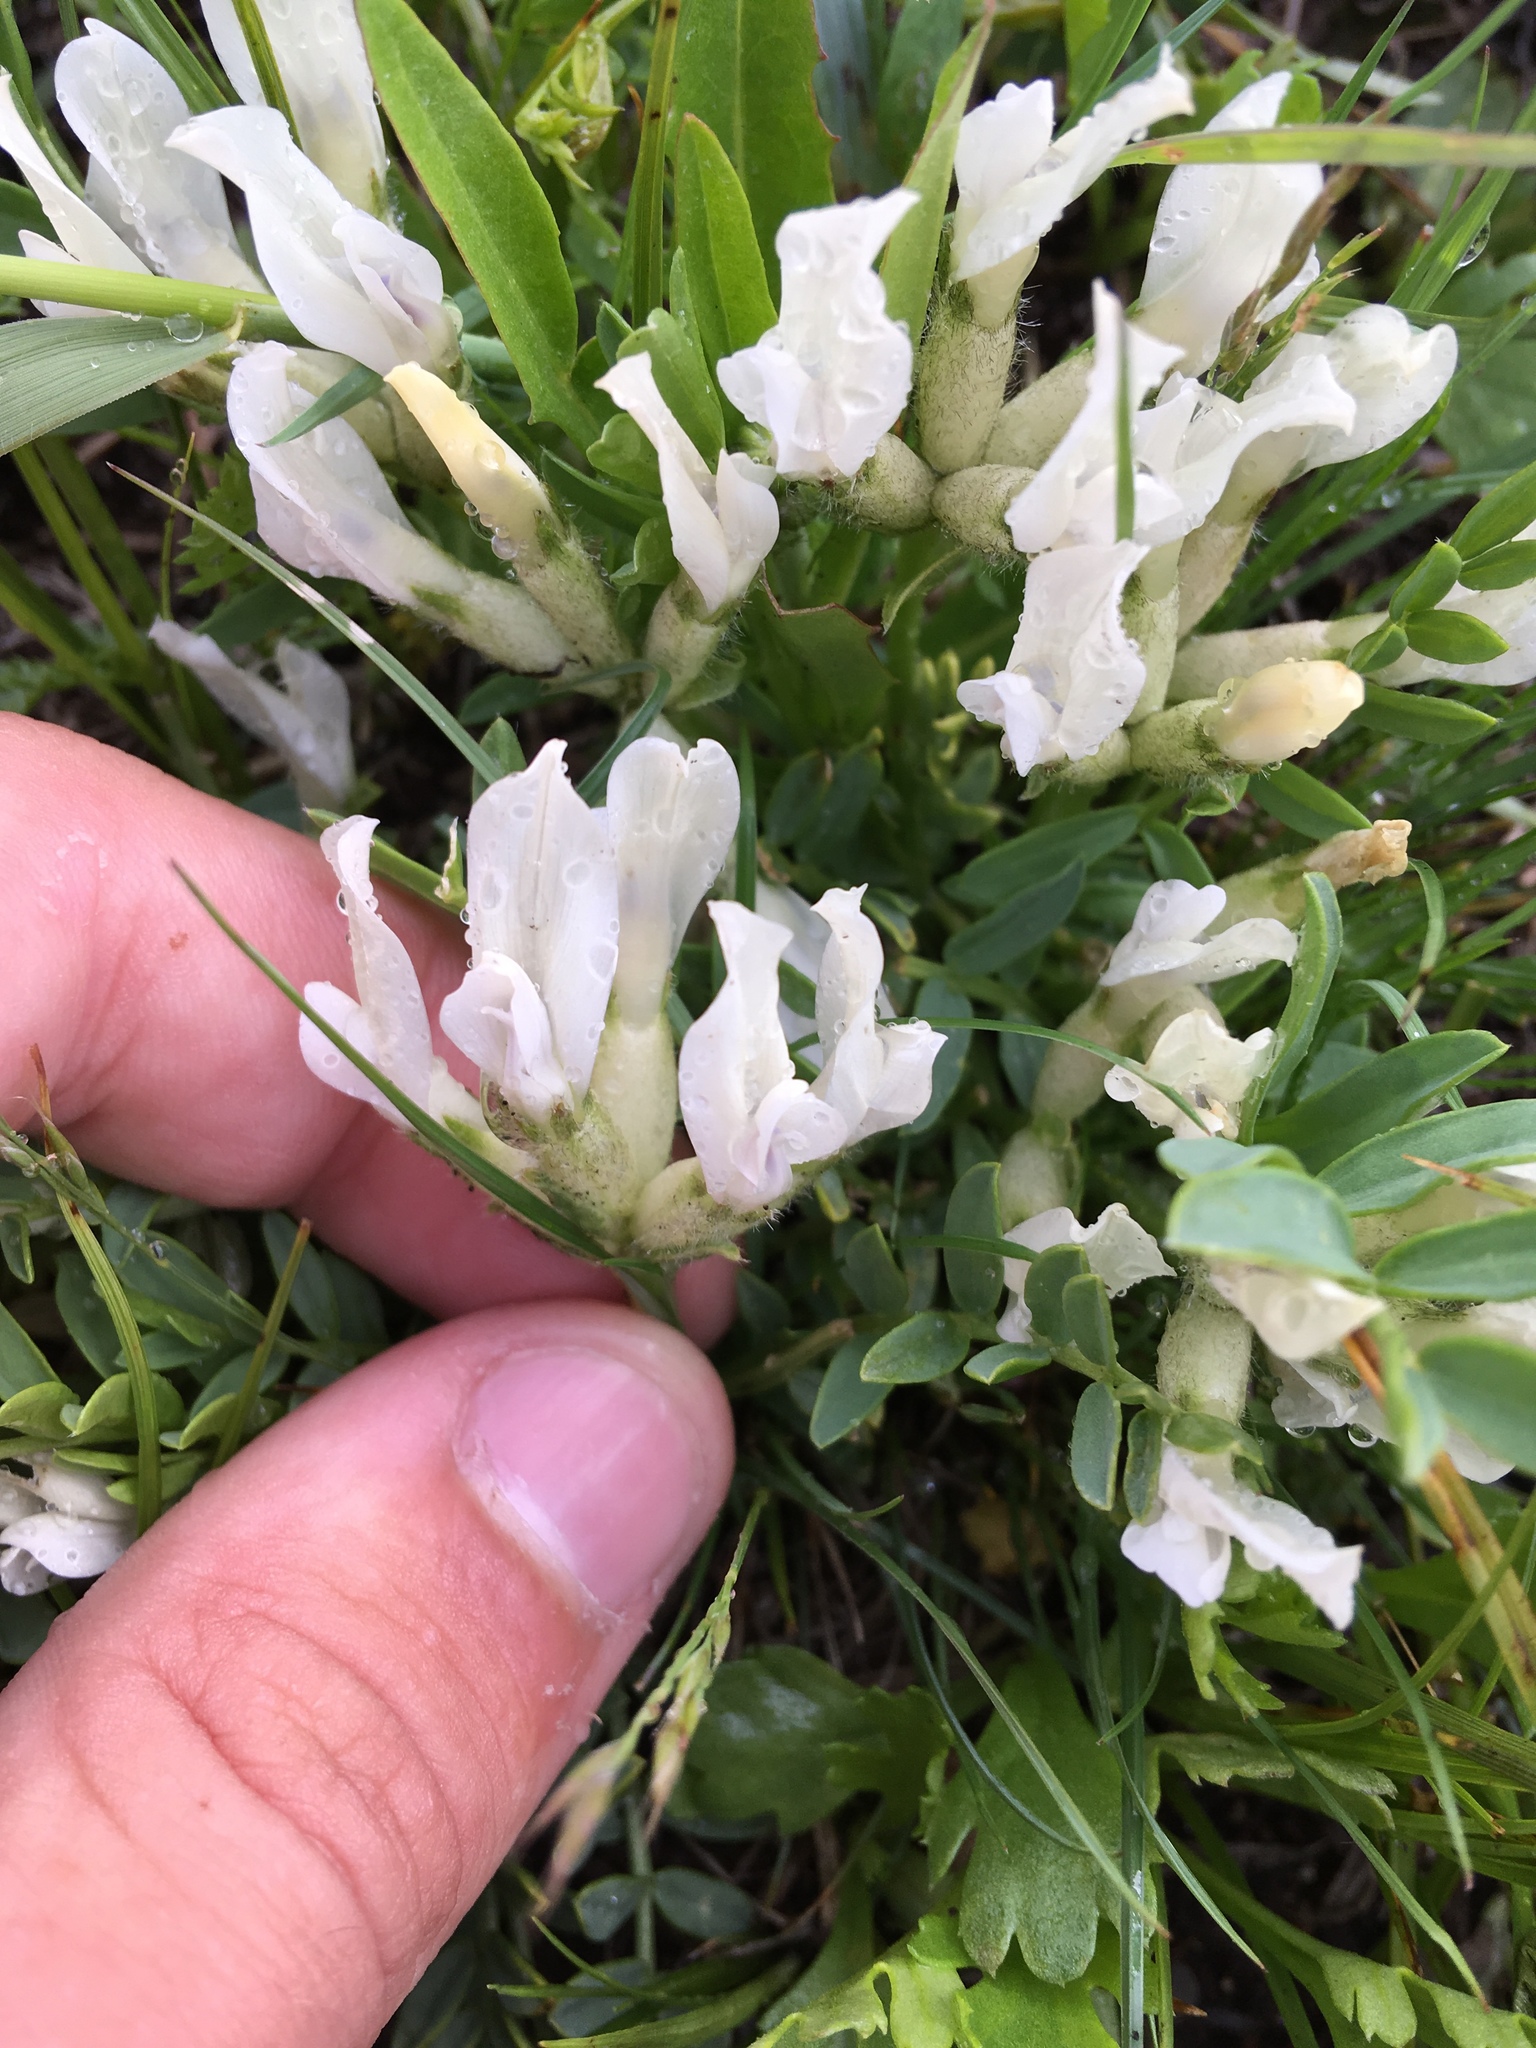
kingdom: Plantae
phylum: Tracheophyta
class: Magnoliopsida
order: Fabales
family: Fabaceae
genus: Oxytropis
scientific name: Oxytropis caespitosa
